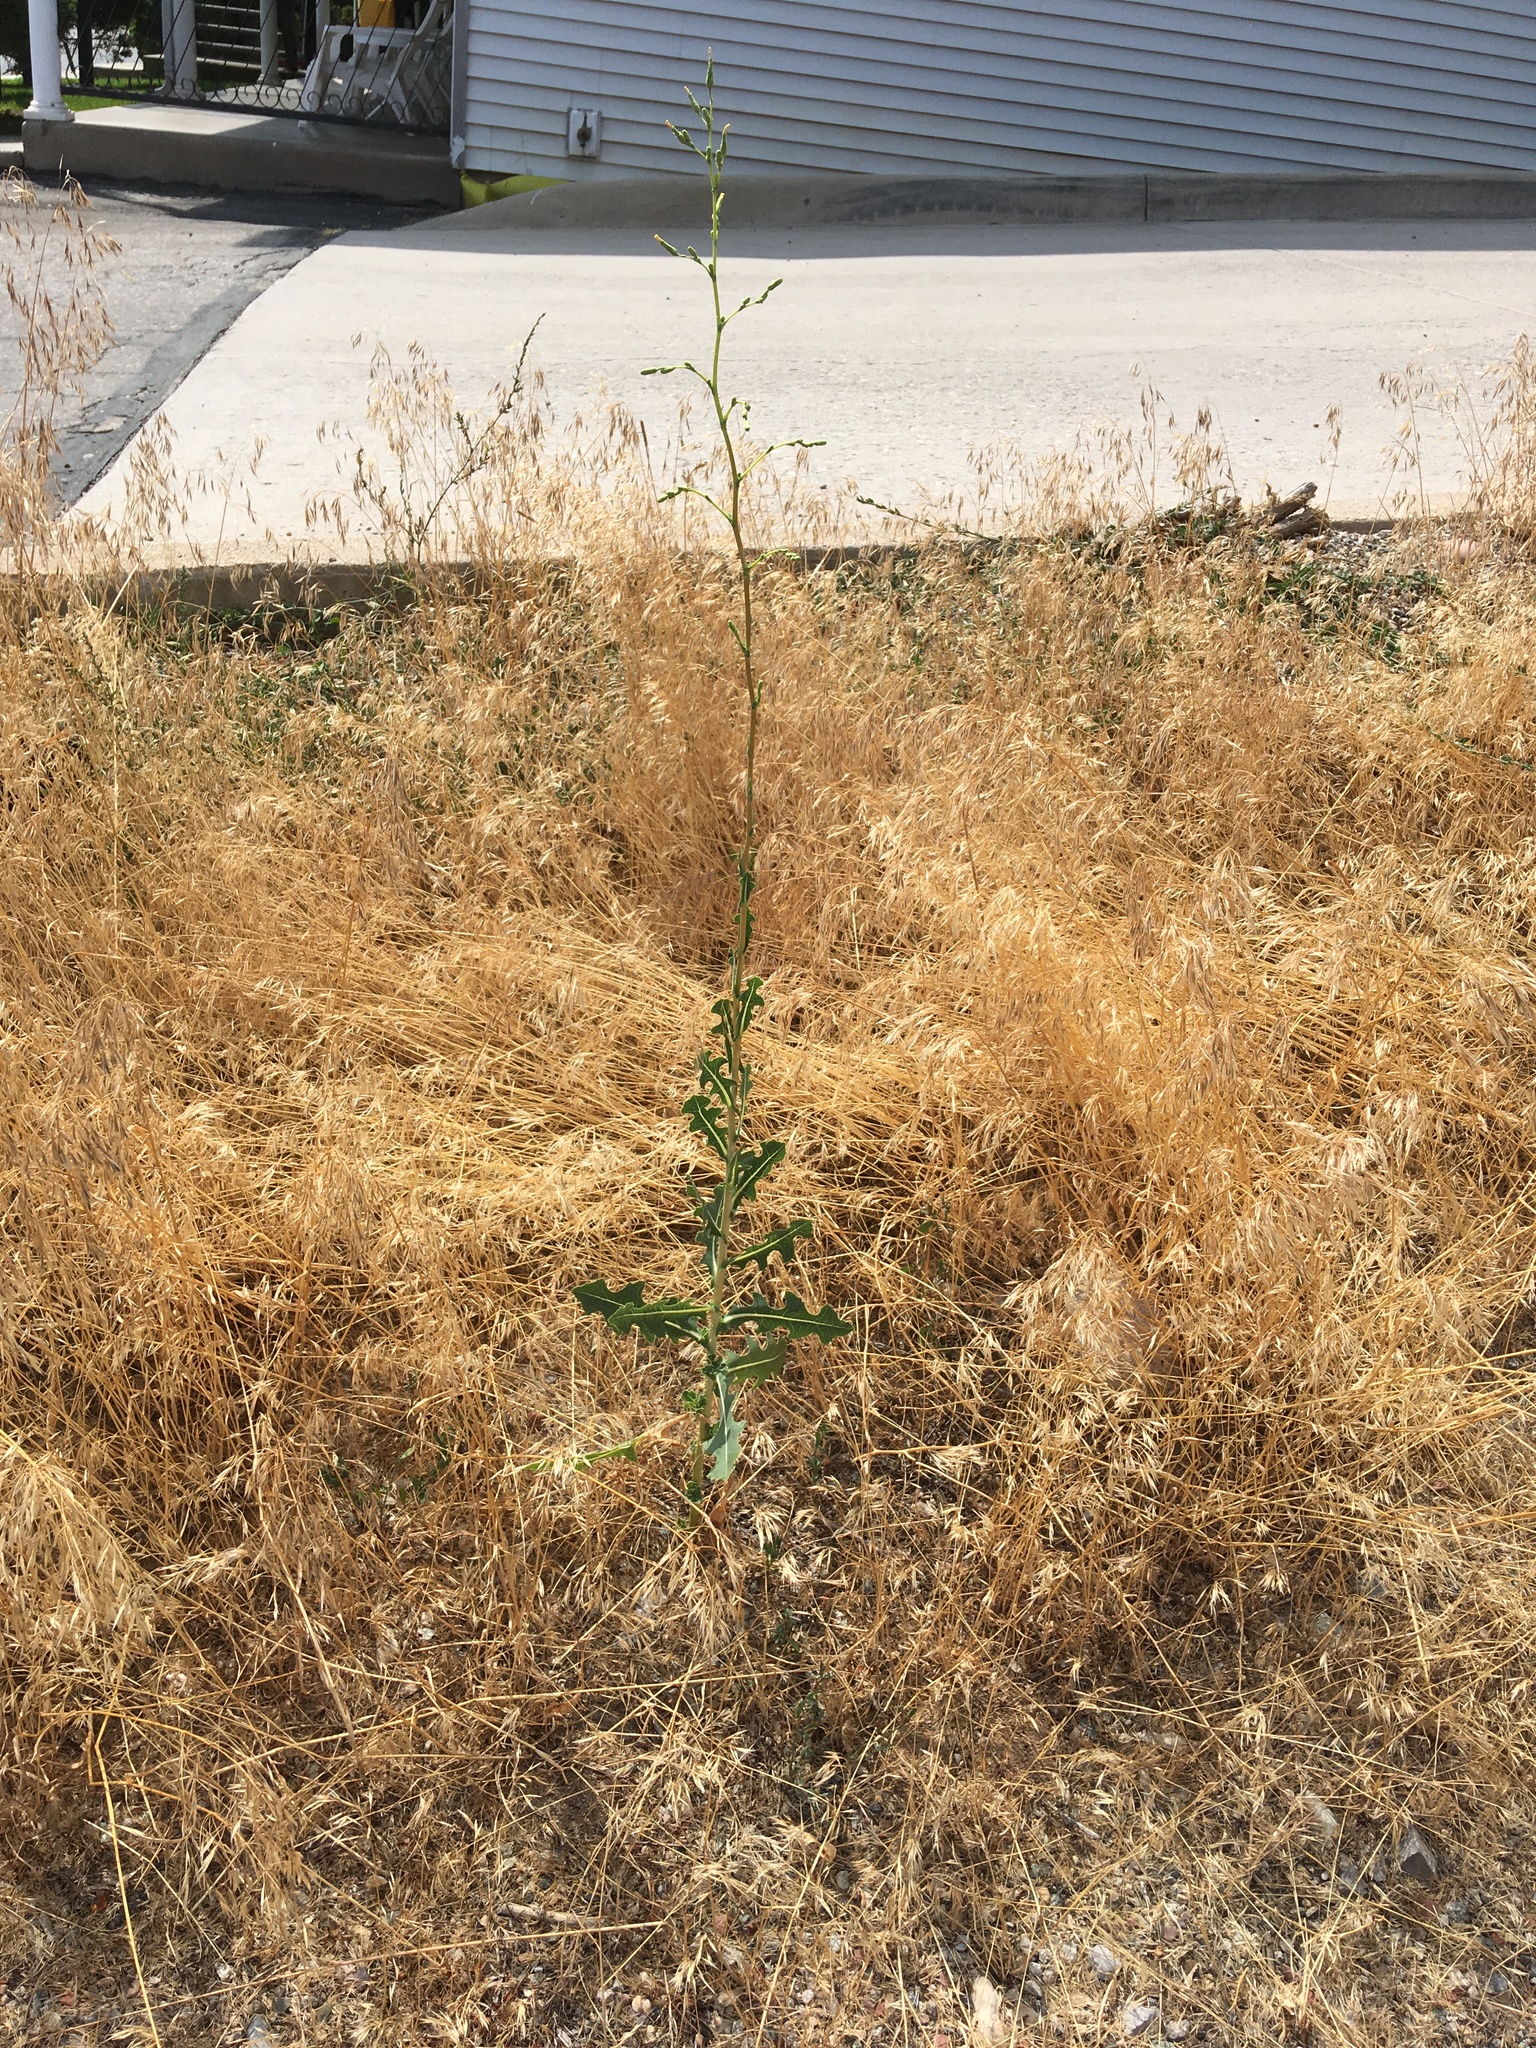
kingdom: Plantae
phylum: Tracheophyta
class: Magnoliopsida
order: Asterales
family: Asteraceae
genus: Lactuca
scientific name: Lactuca serriola
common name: Prickly lettuce
